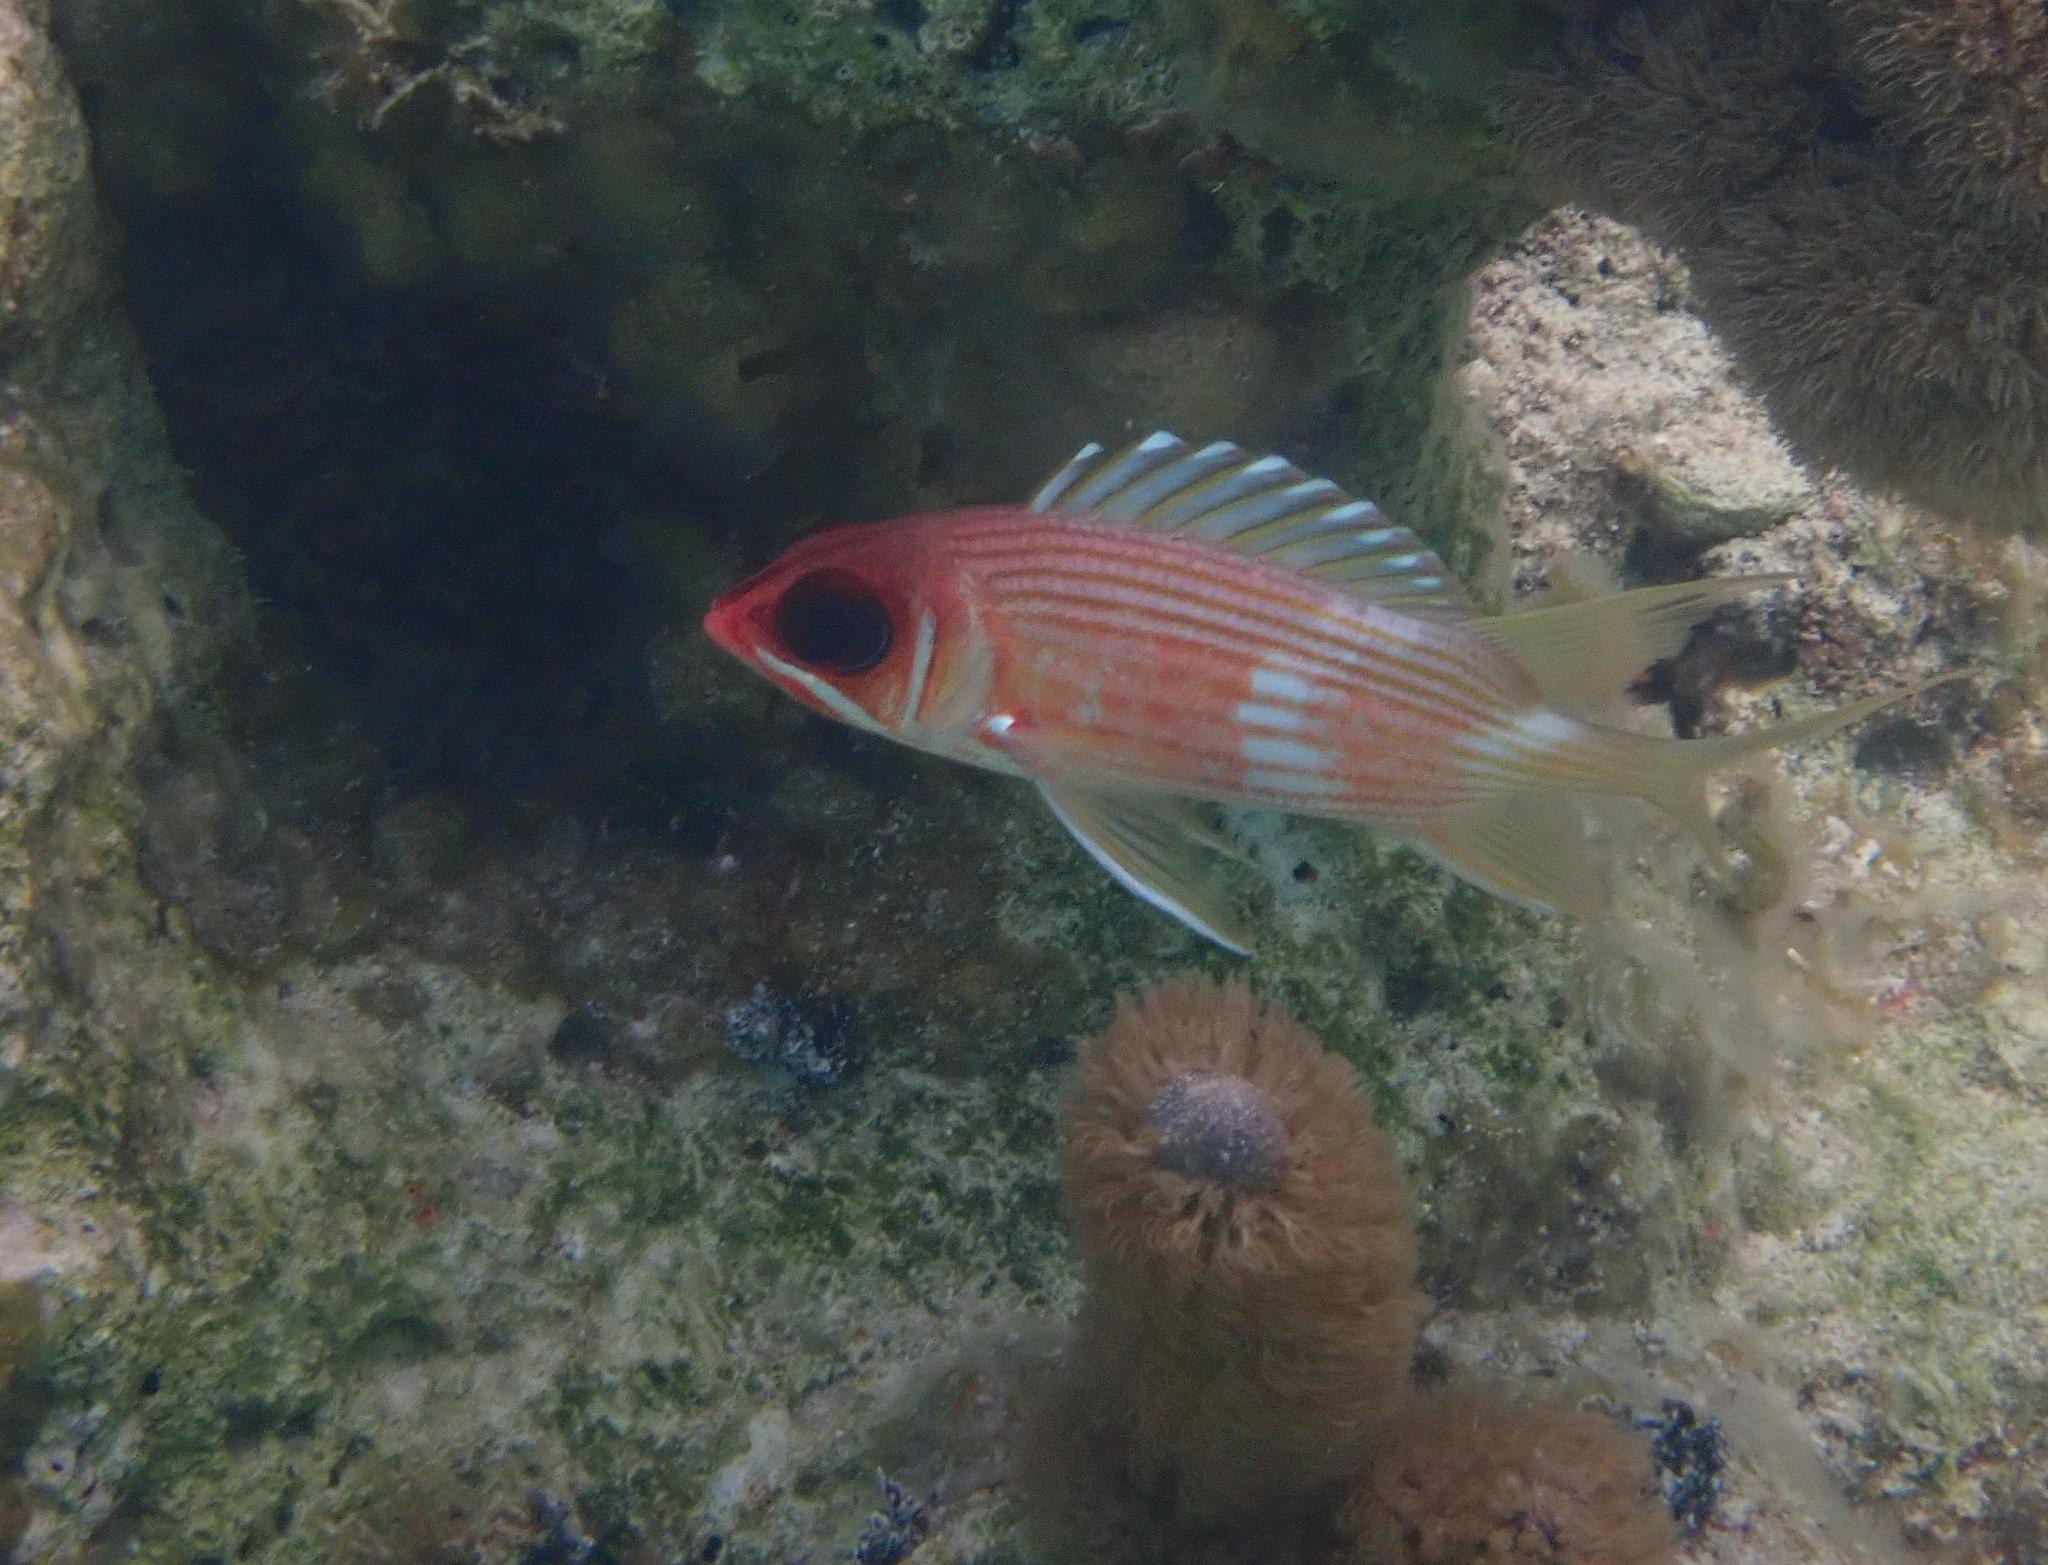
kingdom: Animalia
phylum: Chordata
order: Beryciformes
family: Holocentridae
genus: Holocentrus
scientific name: Holocentrus rufus
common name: Longspine squirrelfish
